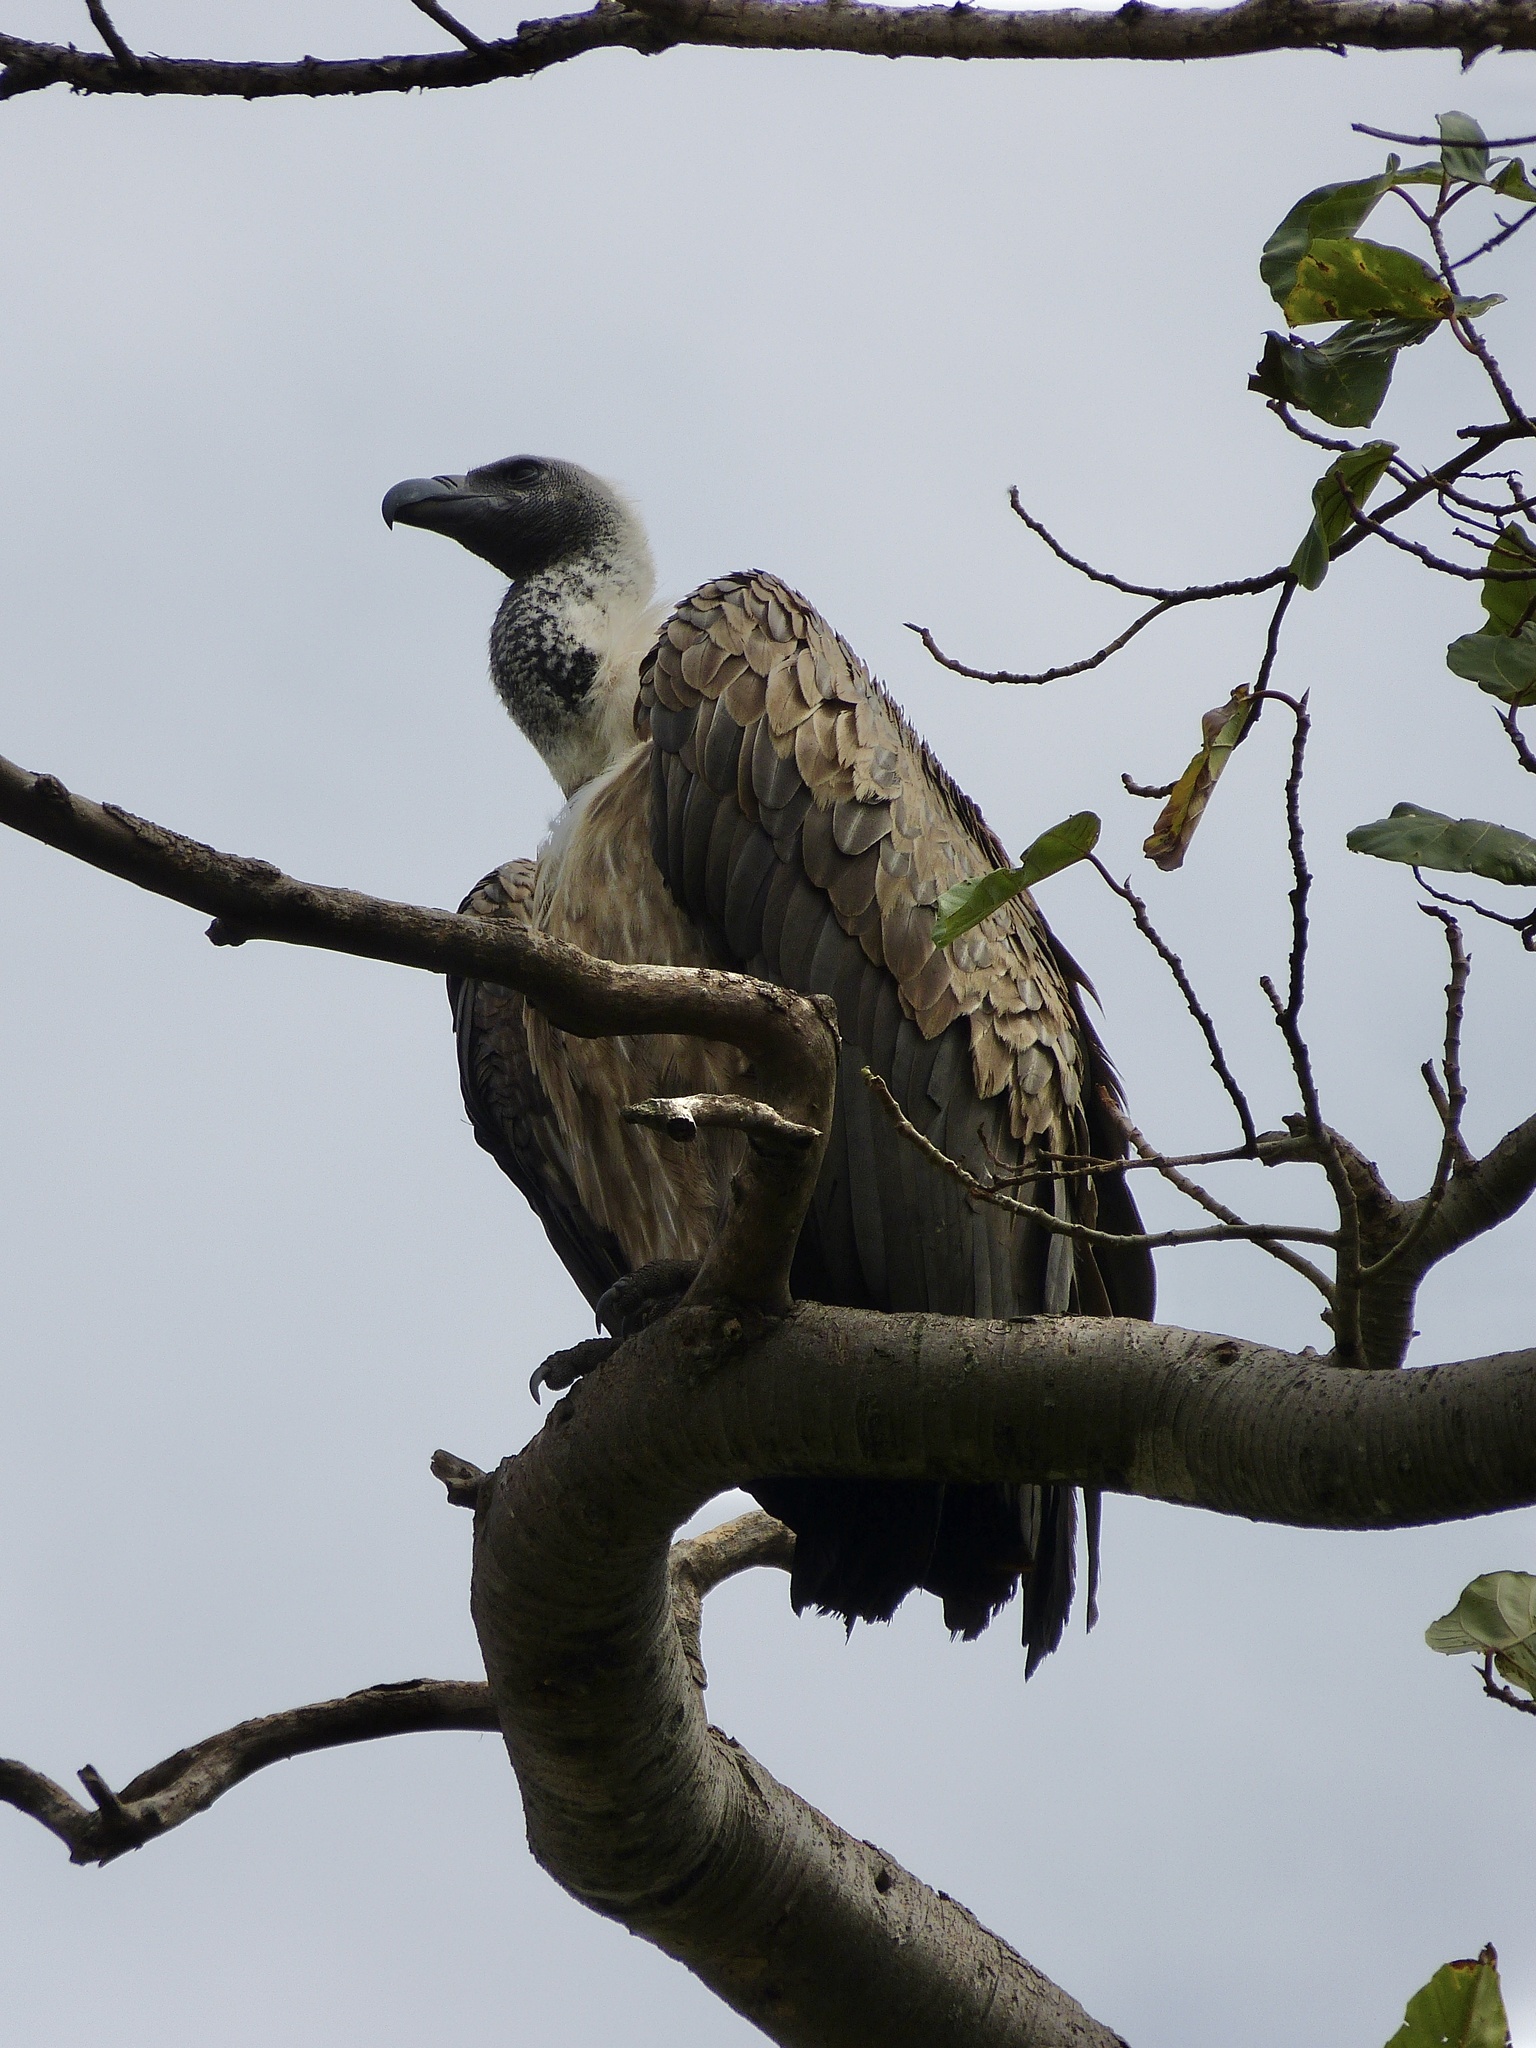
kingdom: Animalia
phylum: Chordata
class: Aves
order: Accipitriformes
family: Accipitridae
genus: Gyps
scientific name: Gyps africanus
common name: White-backed vulture
